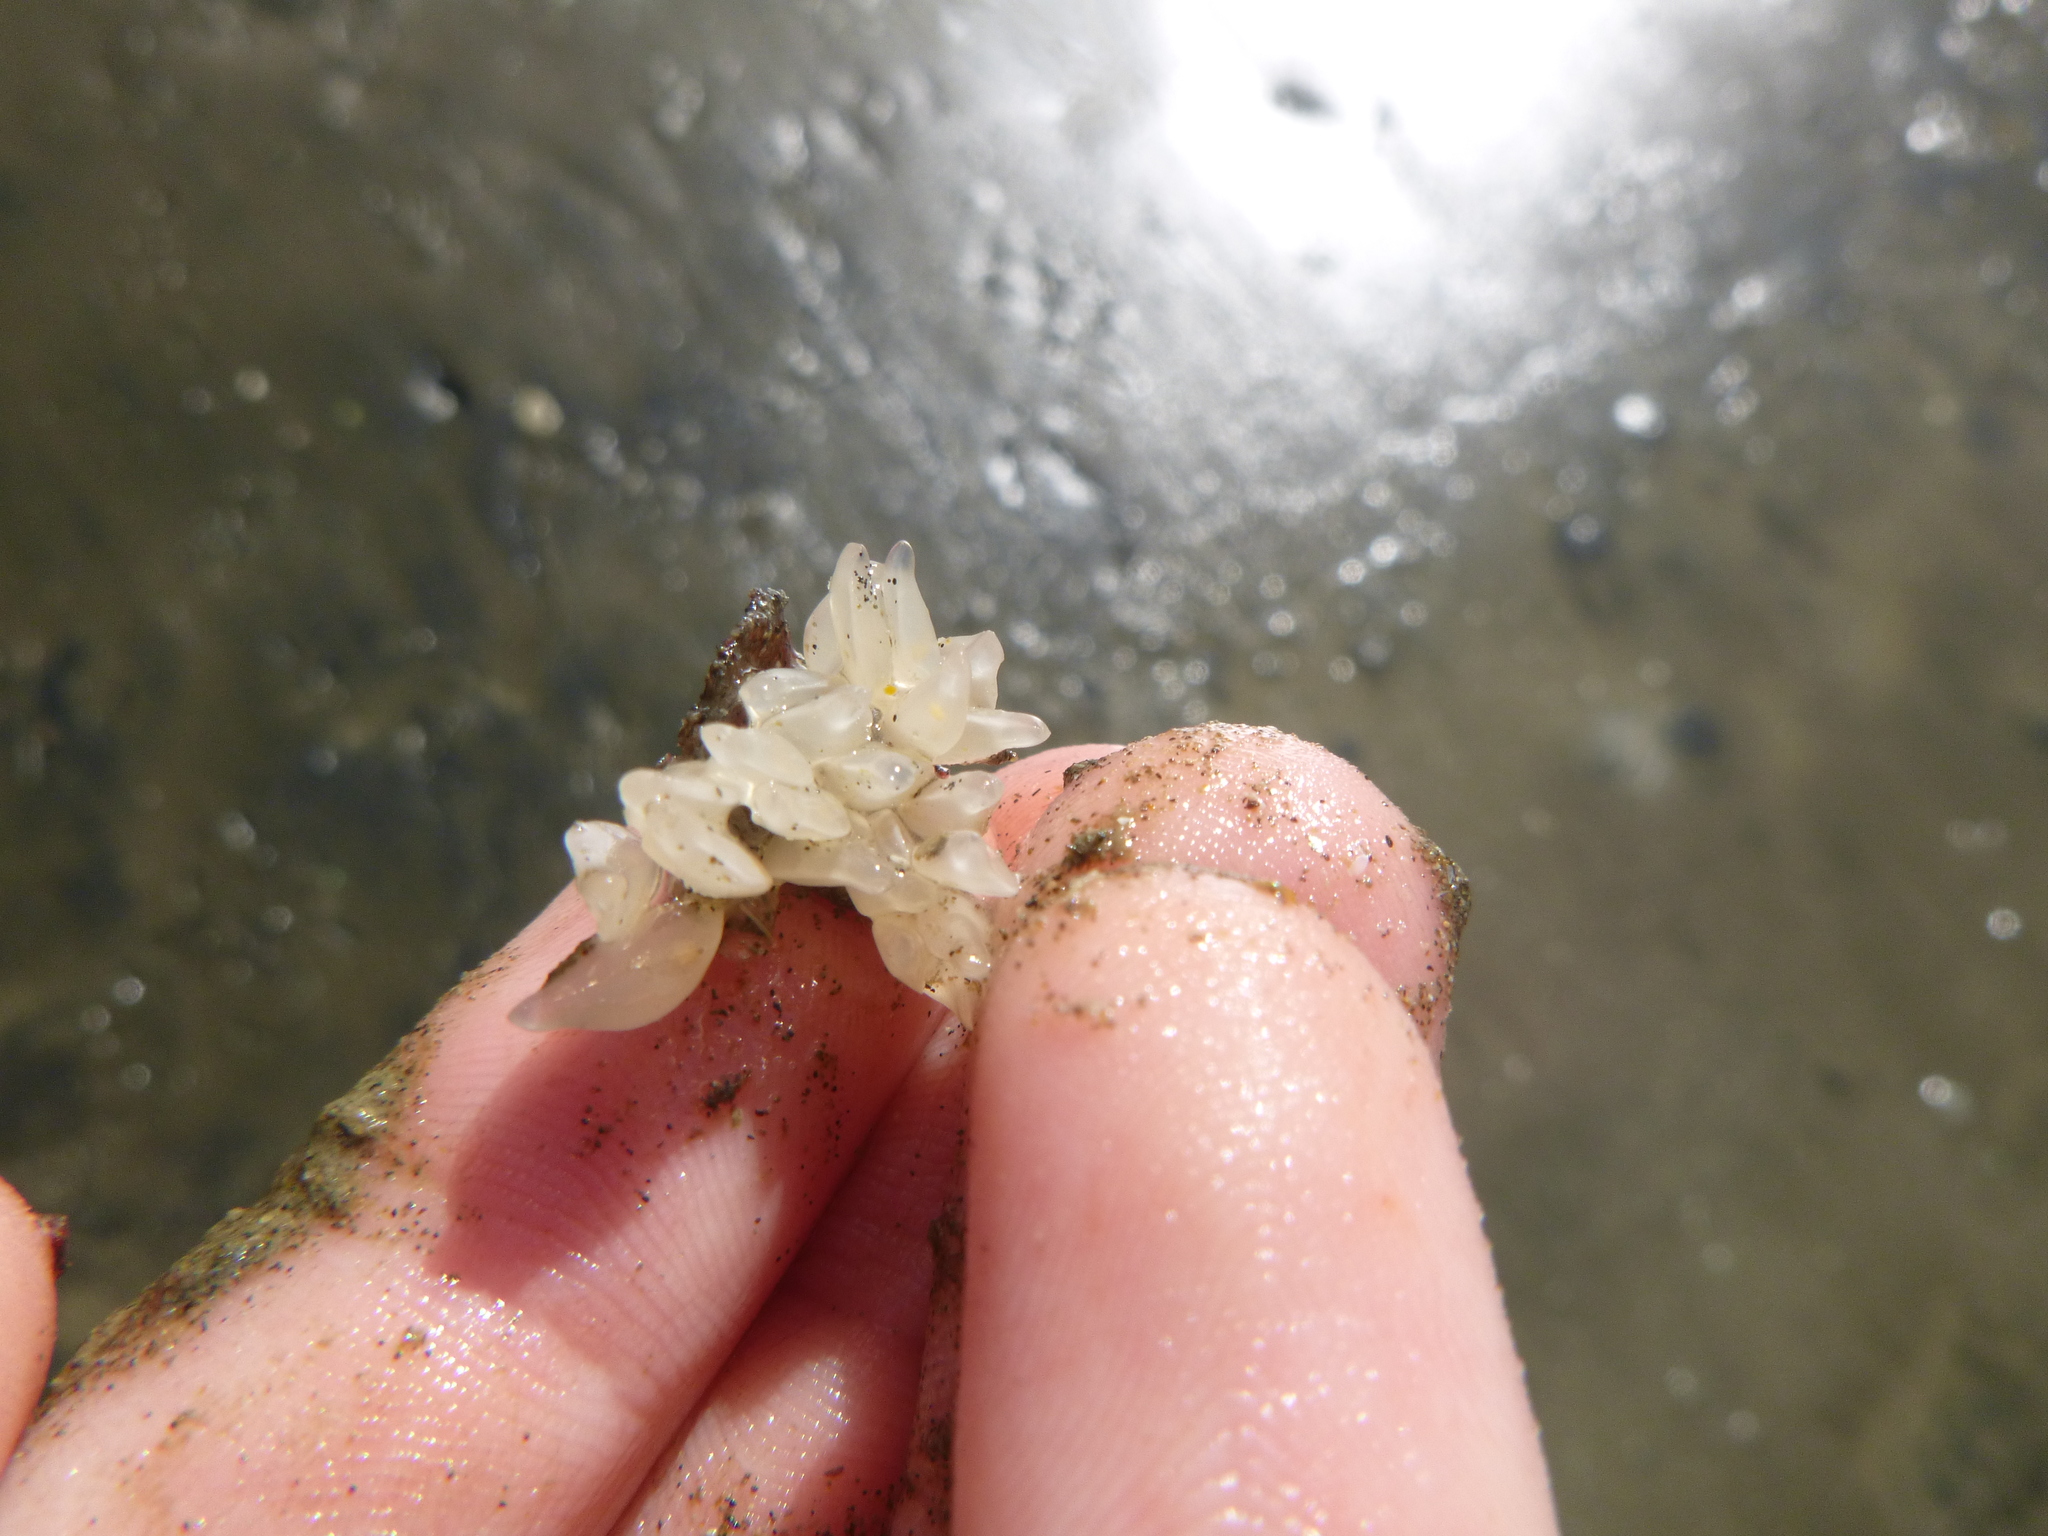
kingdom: Animalia
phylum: Mollusca
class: Gastropoda
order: Neogastropoda
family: Cominellidae
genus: Cominella
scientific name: Cominella maculosa
